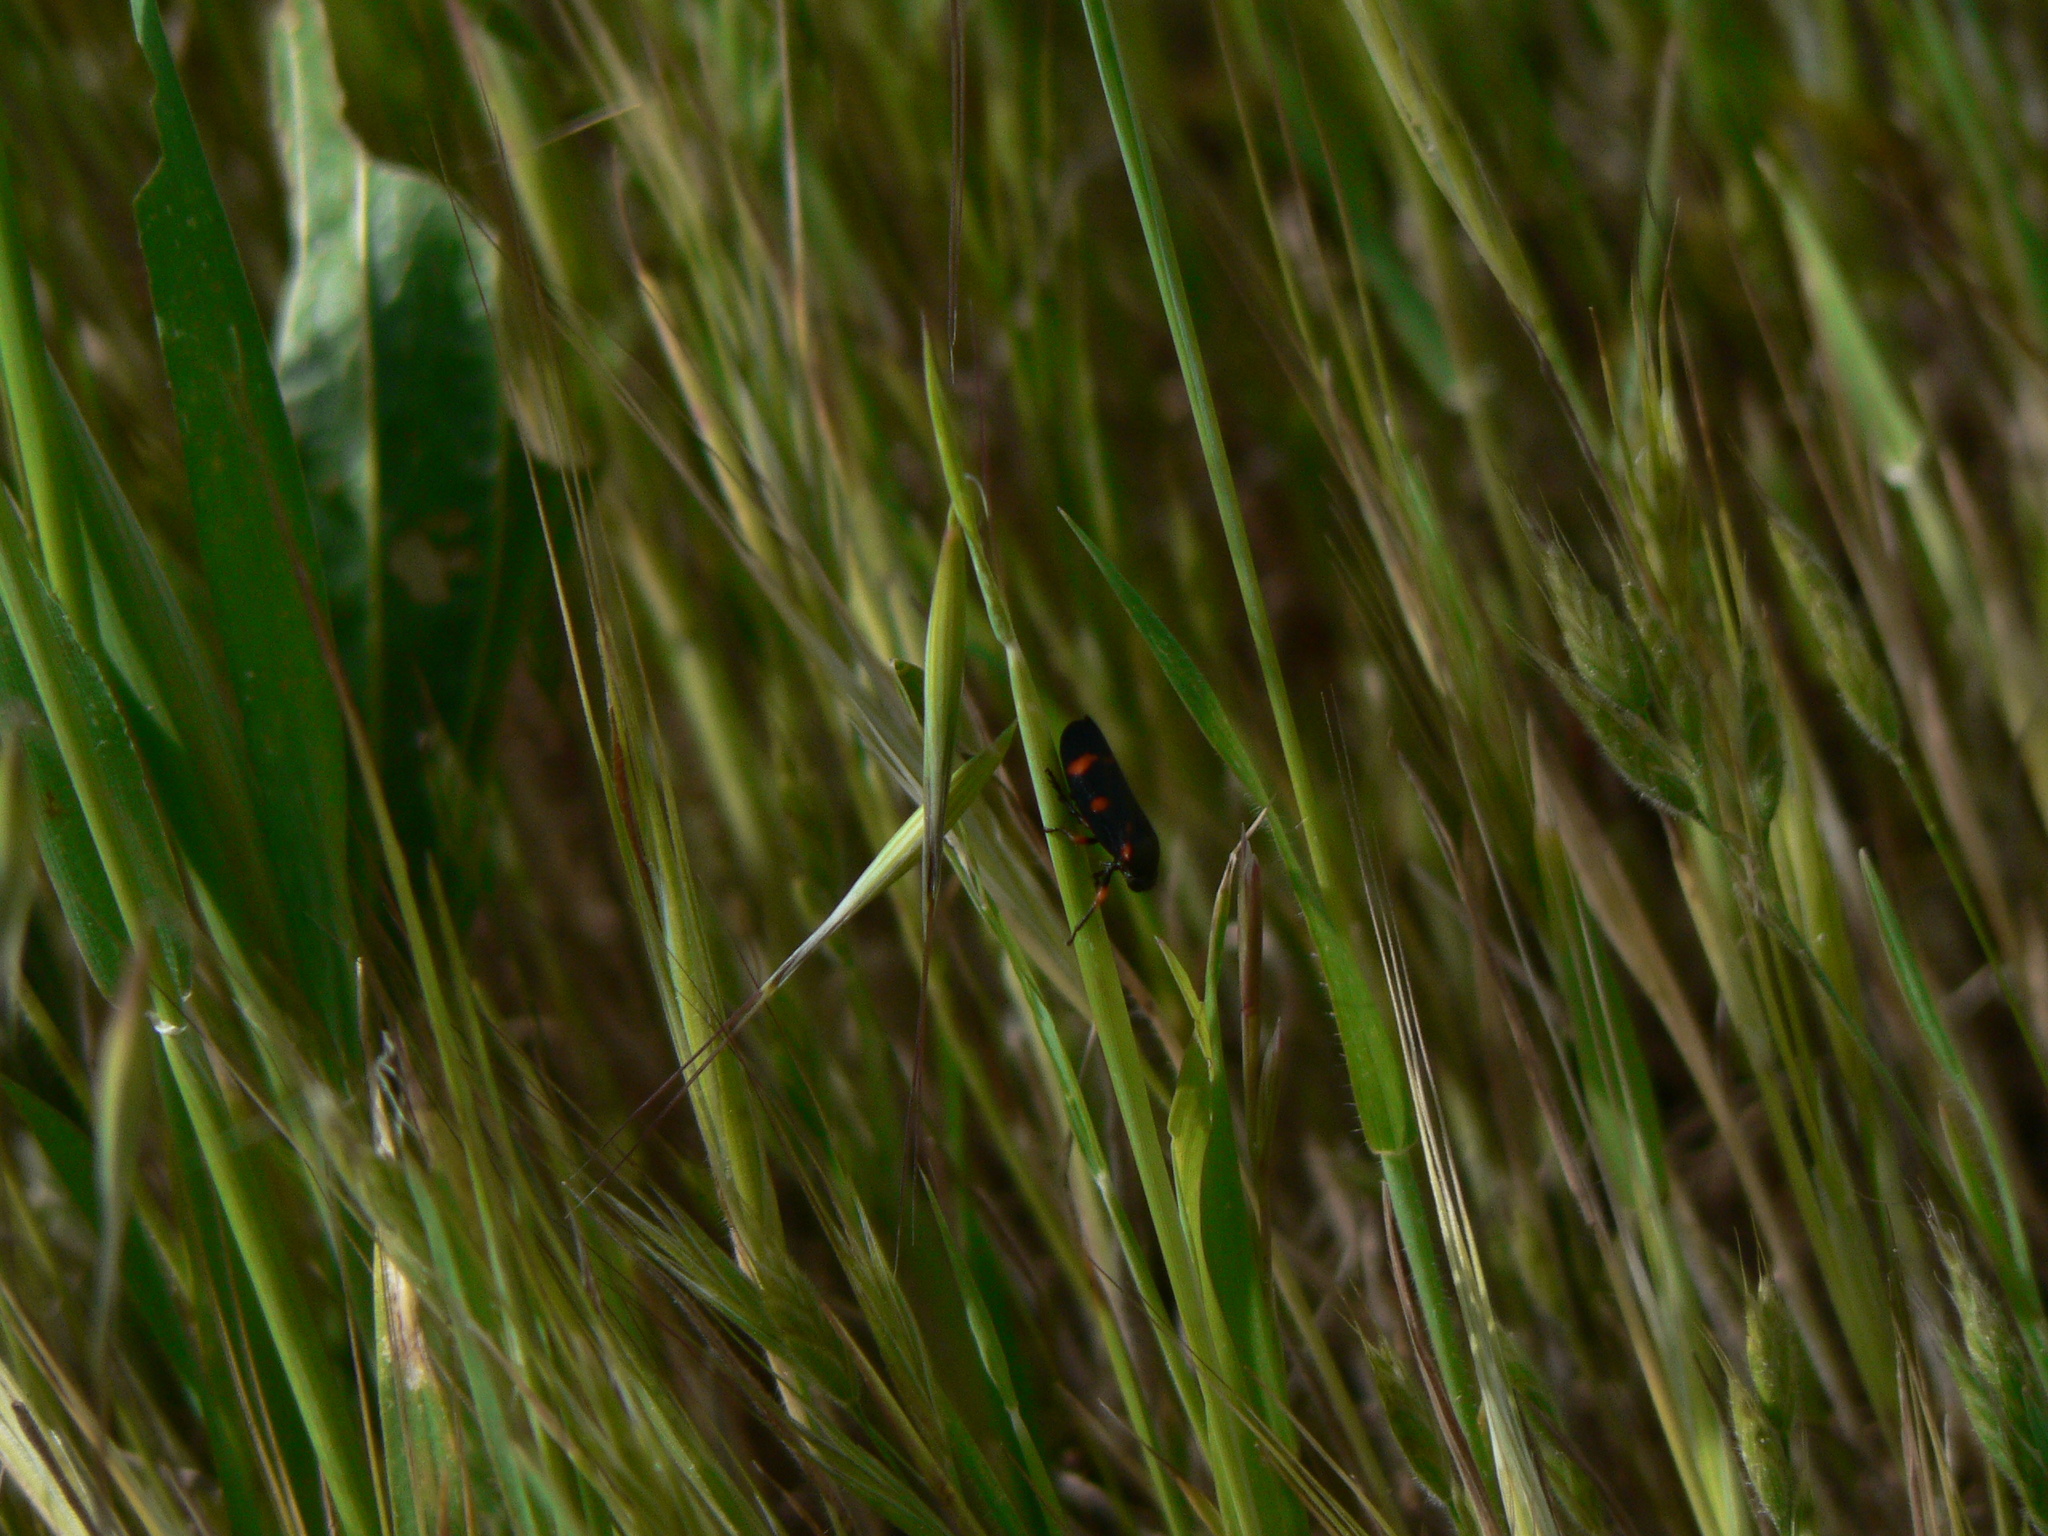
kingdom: Animalia
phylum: Arthropoda
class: Insecta
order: Hemiptera
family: Cercopidae
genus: Cercopis
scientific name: Cercopis intermedia
